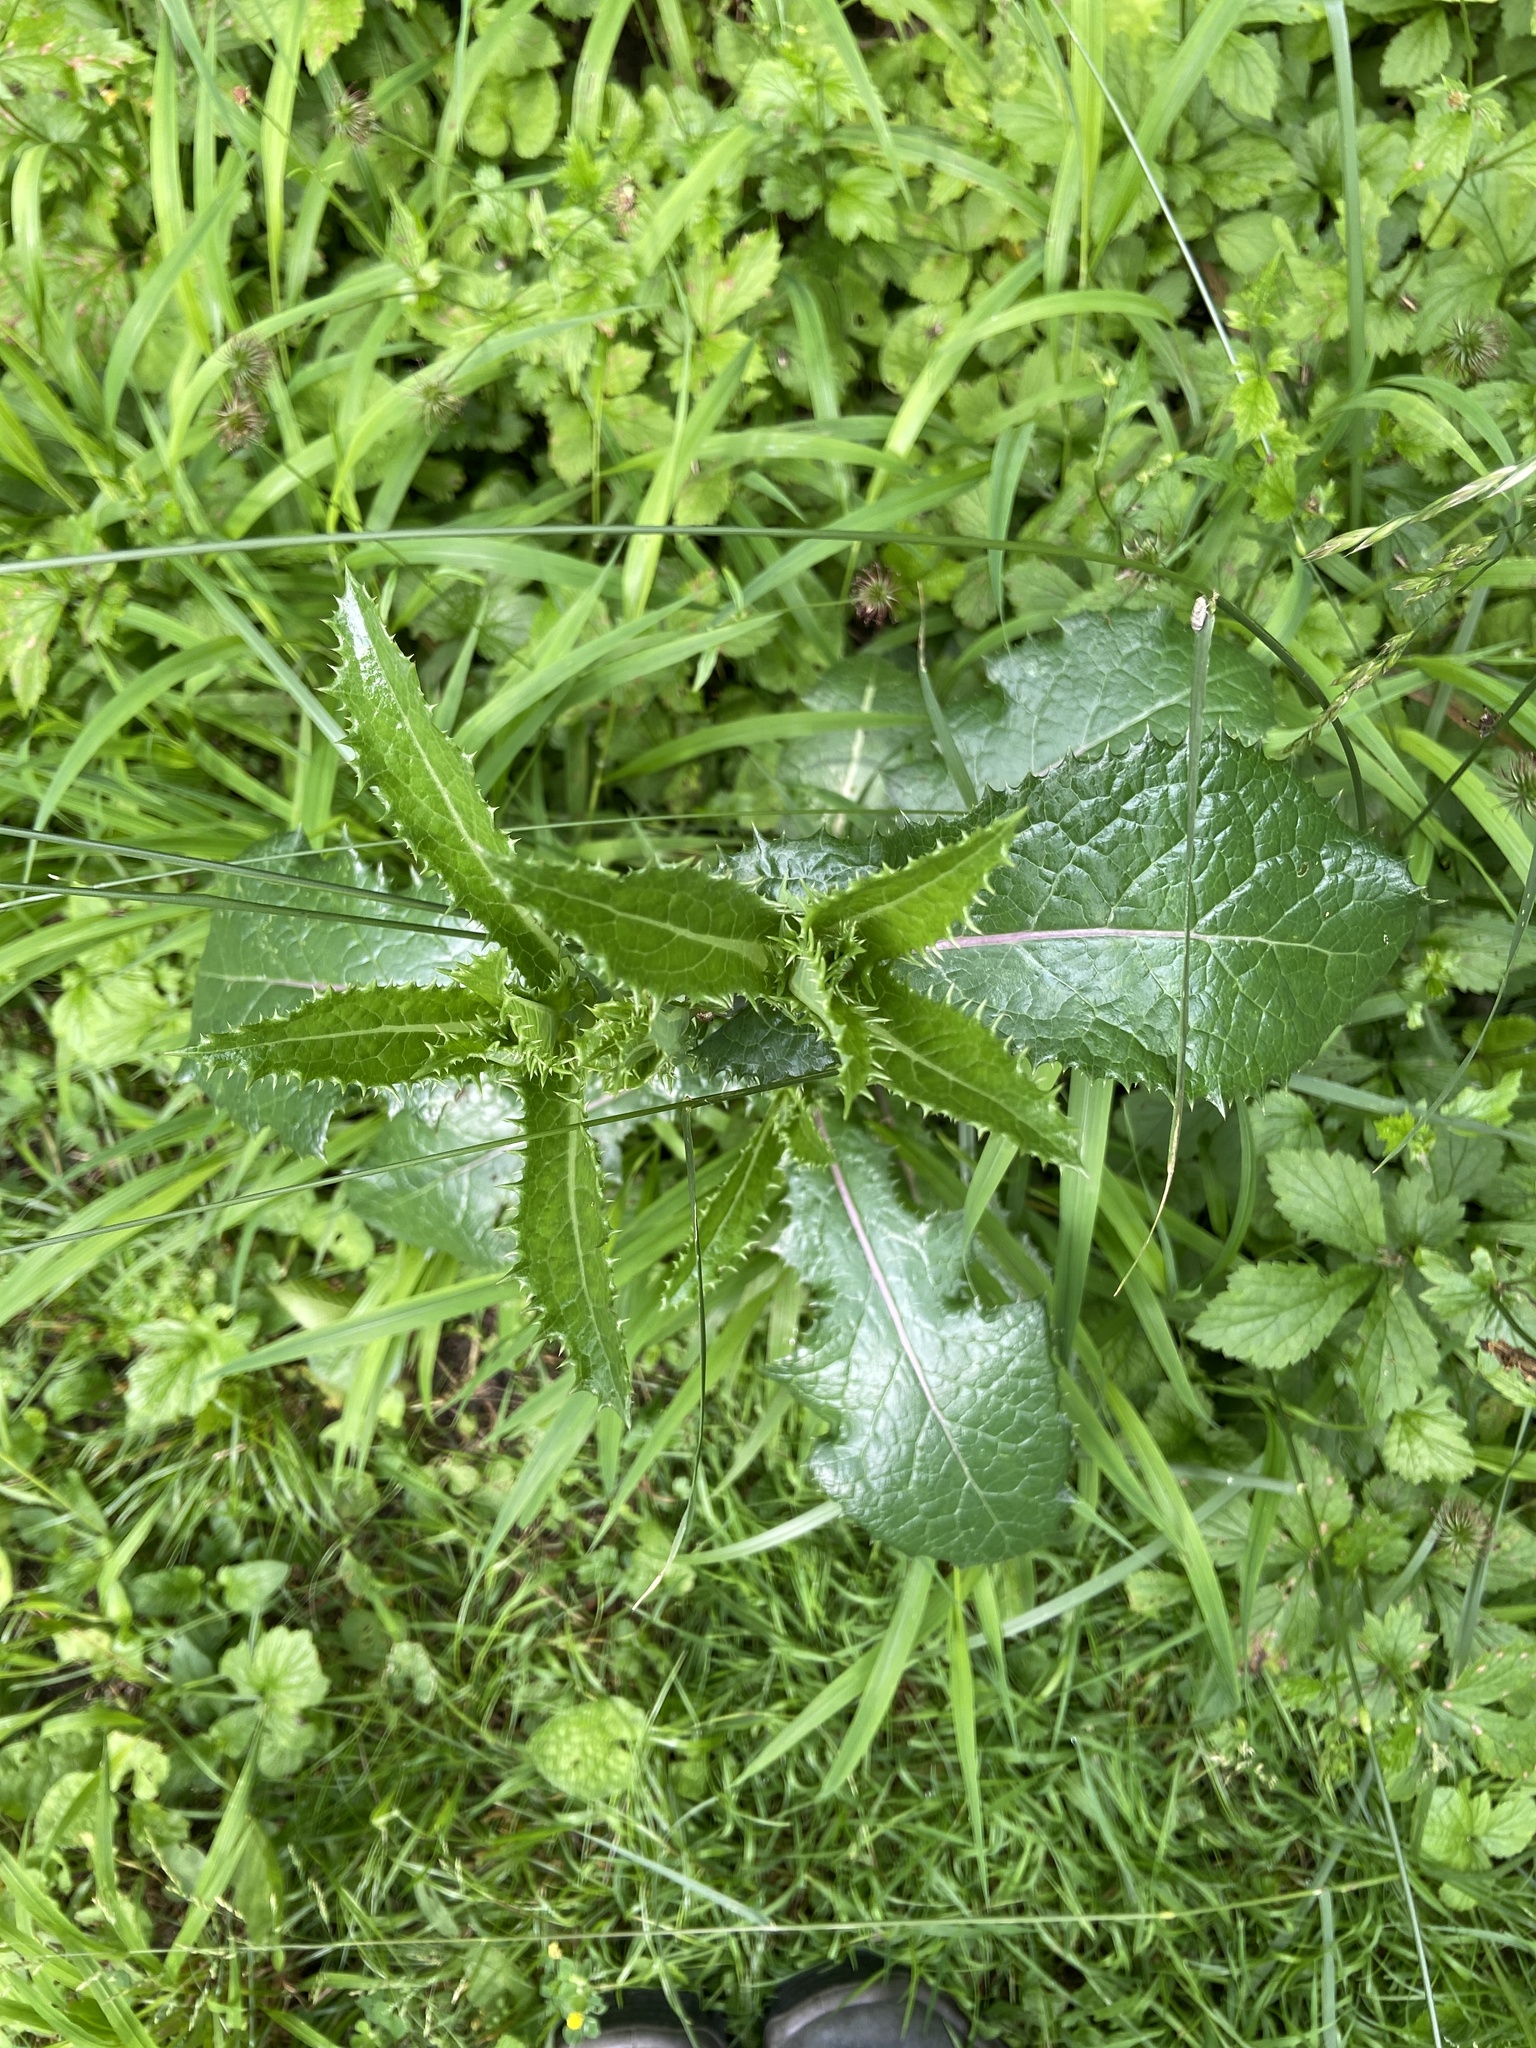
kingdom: Plantae
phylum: Tracheophyta
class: Magnoliopsida
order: Asterales
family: Asteraceae
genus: Sonchus
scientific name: Sonchus asper
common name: Prickly sow-thistle
